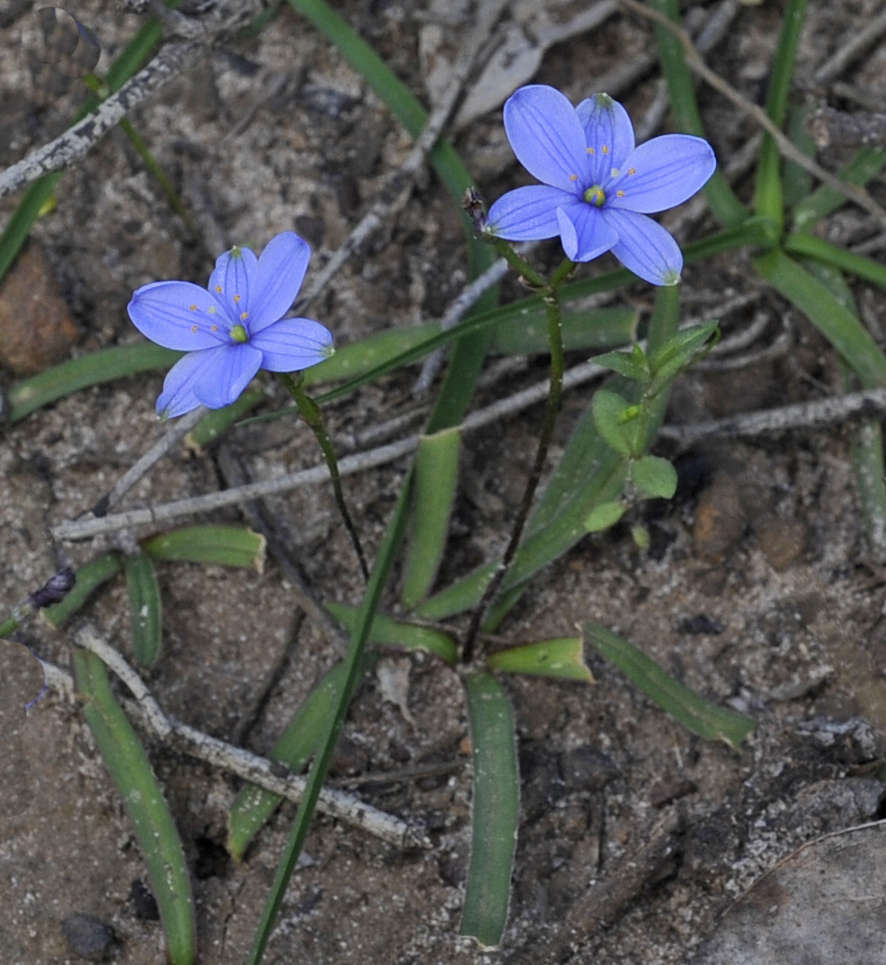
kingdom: Plantae
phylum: Tracheophyta
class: Liliopsida
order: Asparagales
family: Asphodelaceae
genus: Chamaescilla
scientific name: Chamaescilla corymbosa
